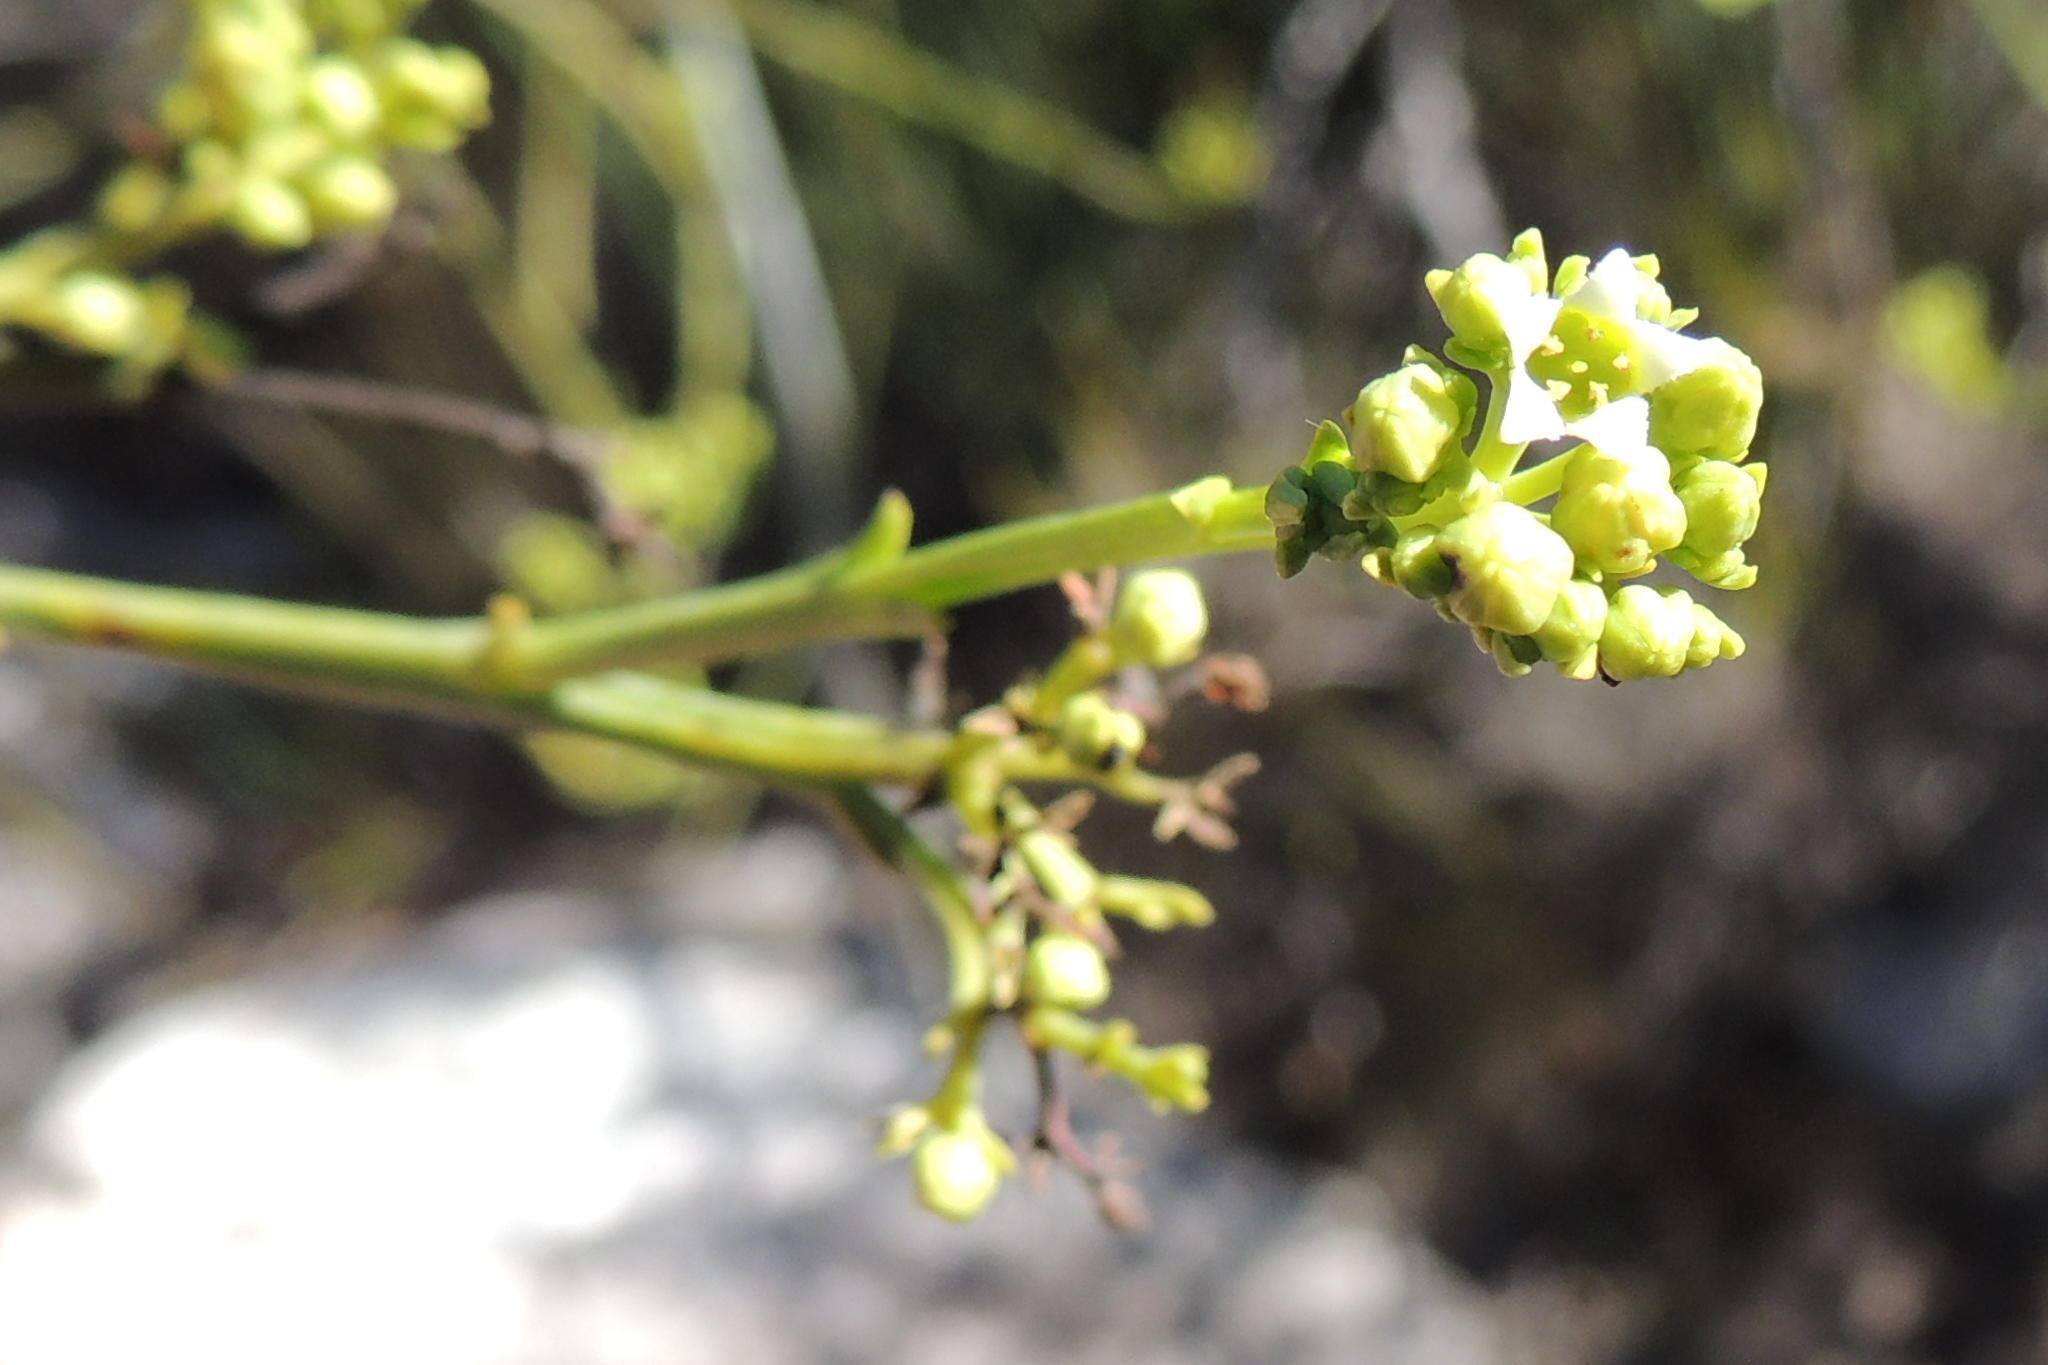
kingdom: Plantae
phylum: Tracheophyta
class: Magnoliopsida
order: Santalales
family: Thesiaceae
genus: Thesium
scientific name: Thesium strictum
